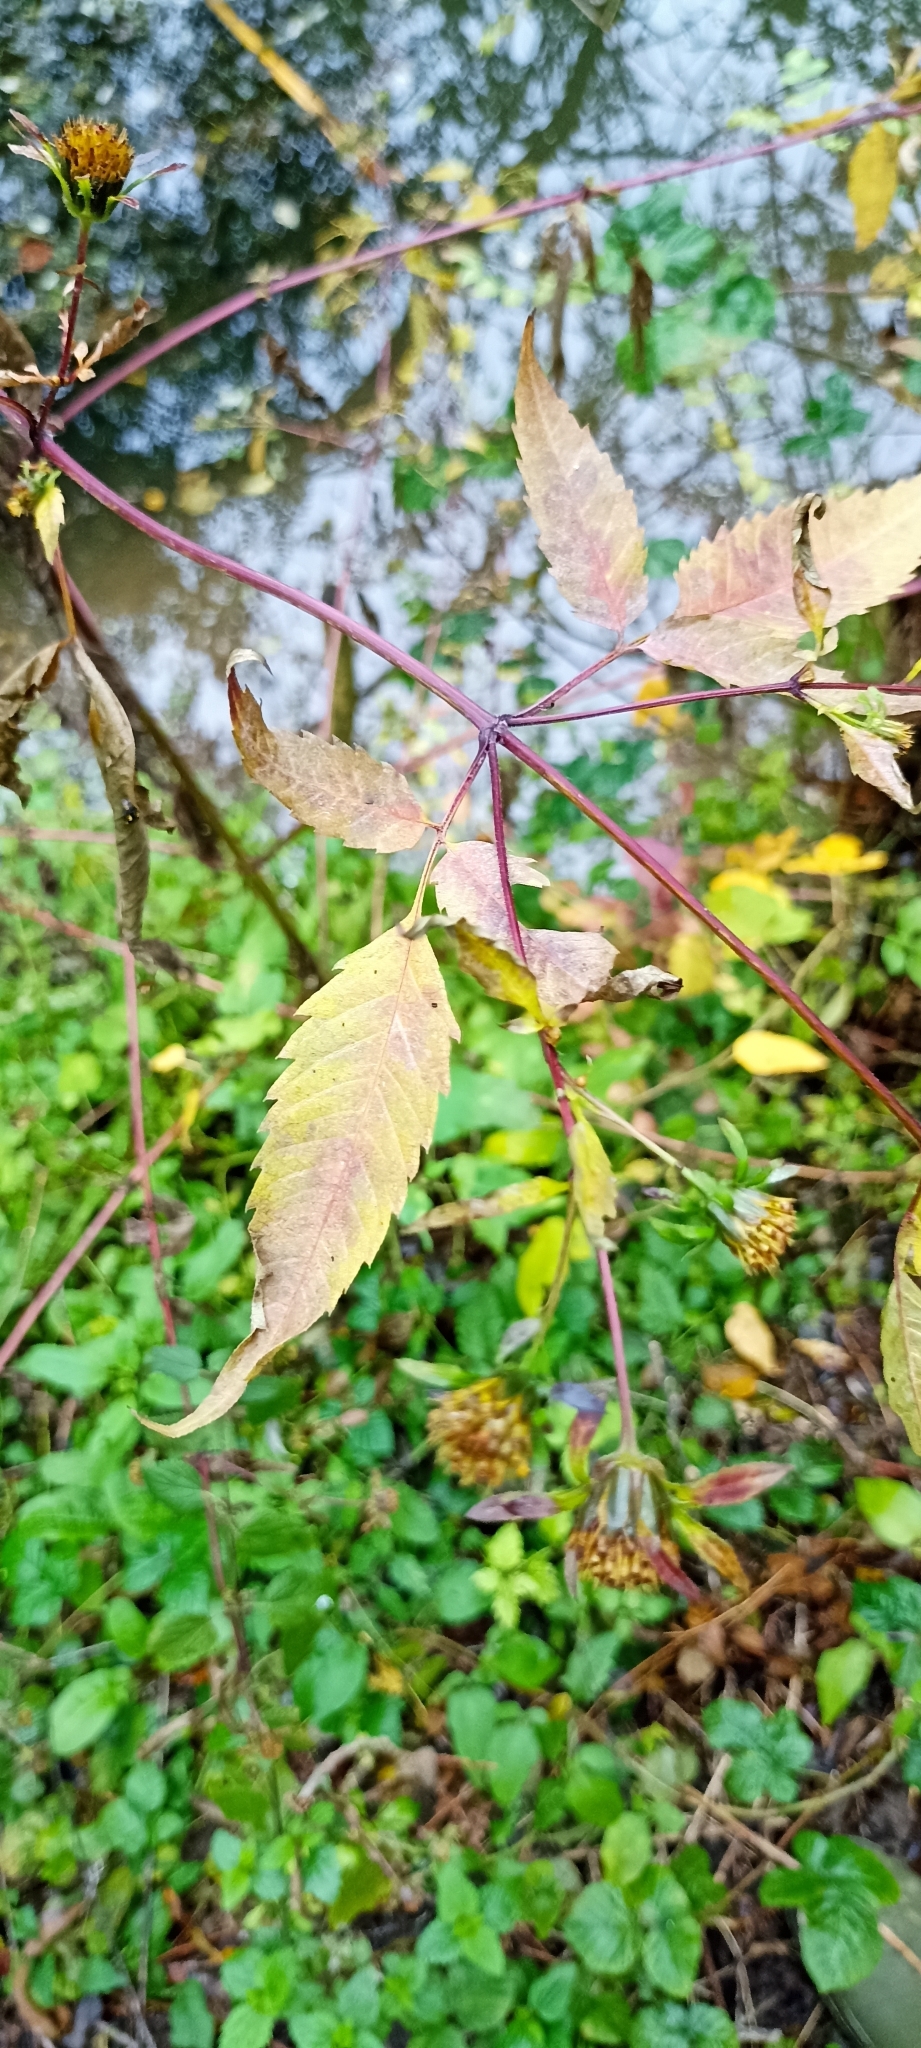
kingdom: Plantae
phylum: Tracheophyta
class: Magnoliopsida
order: Asterales
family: Asteraceae
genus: Bidens
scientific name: Bidens frondosa
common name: Beggarticks
